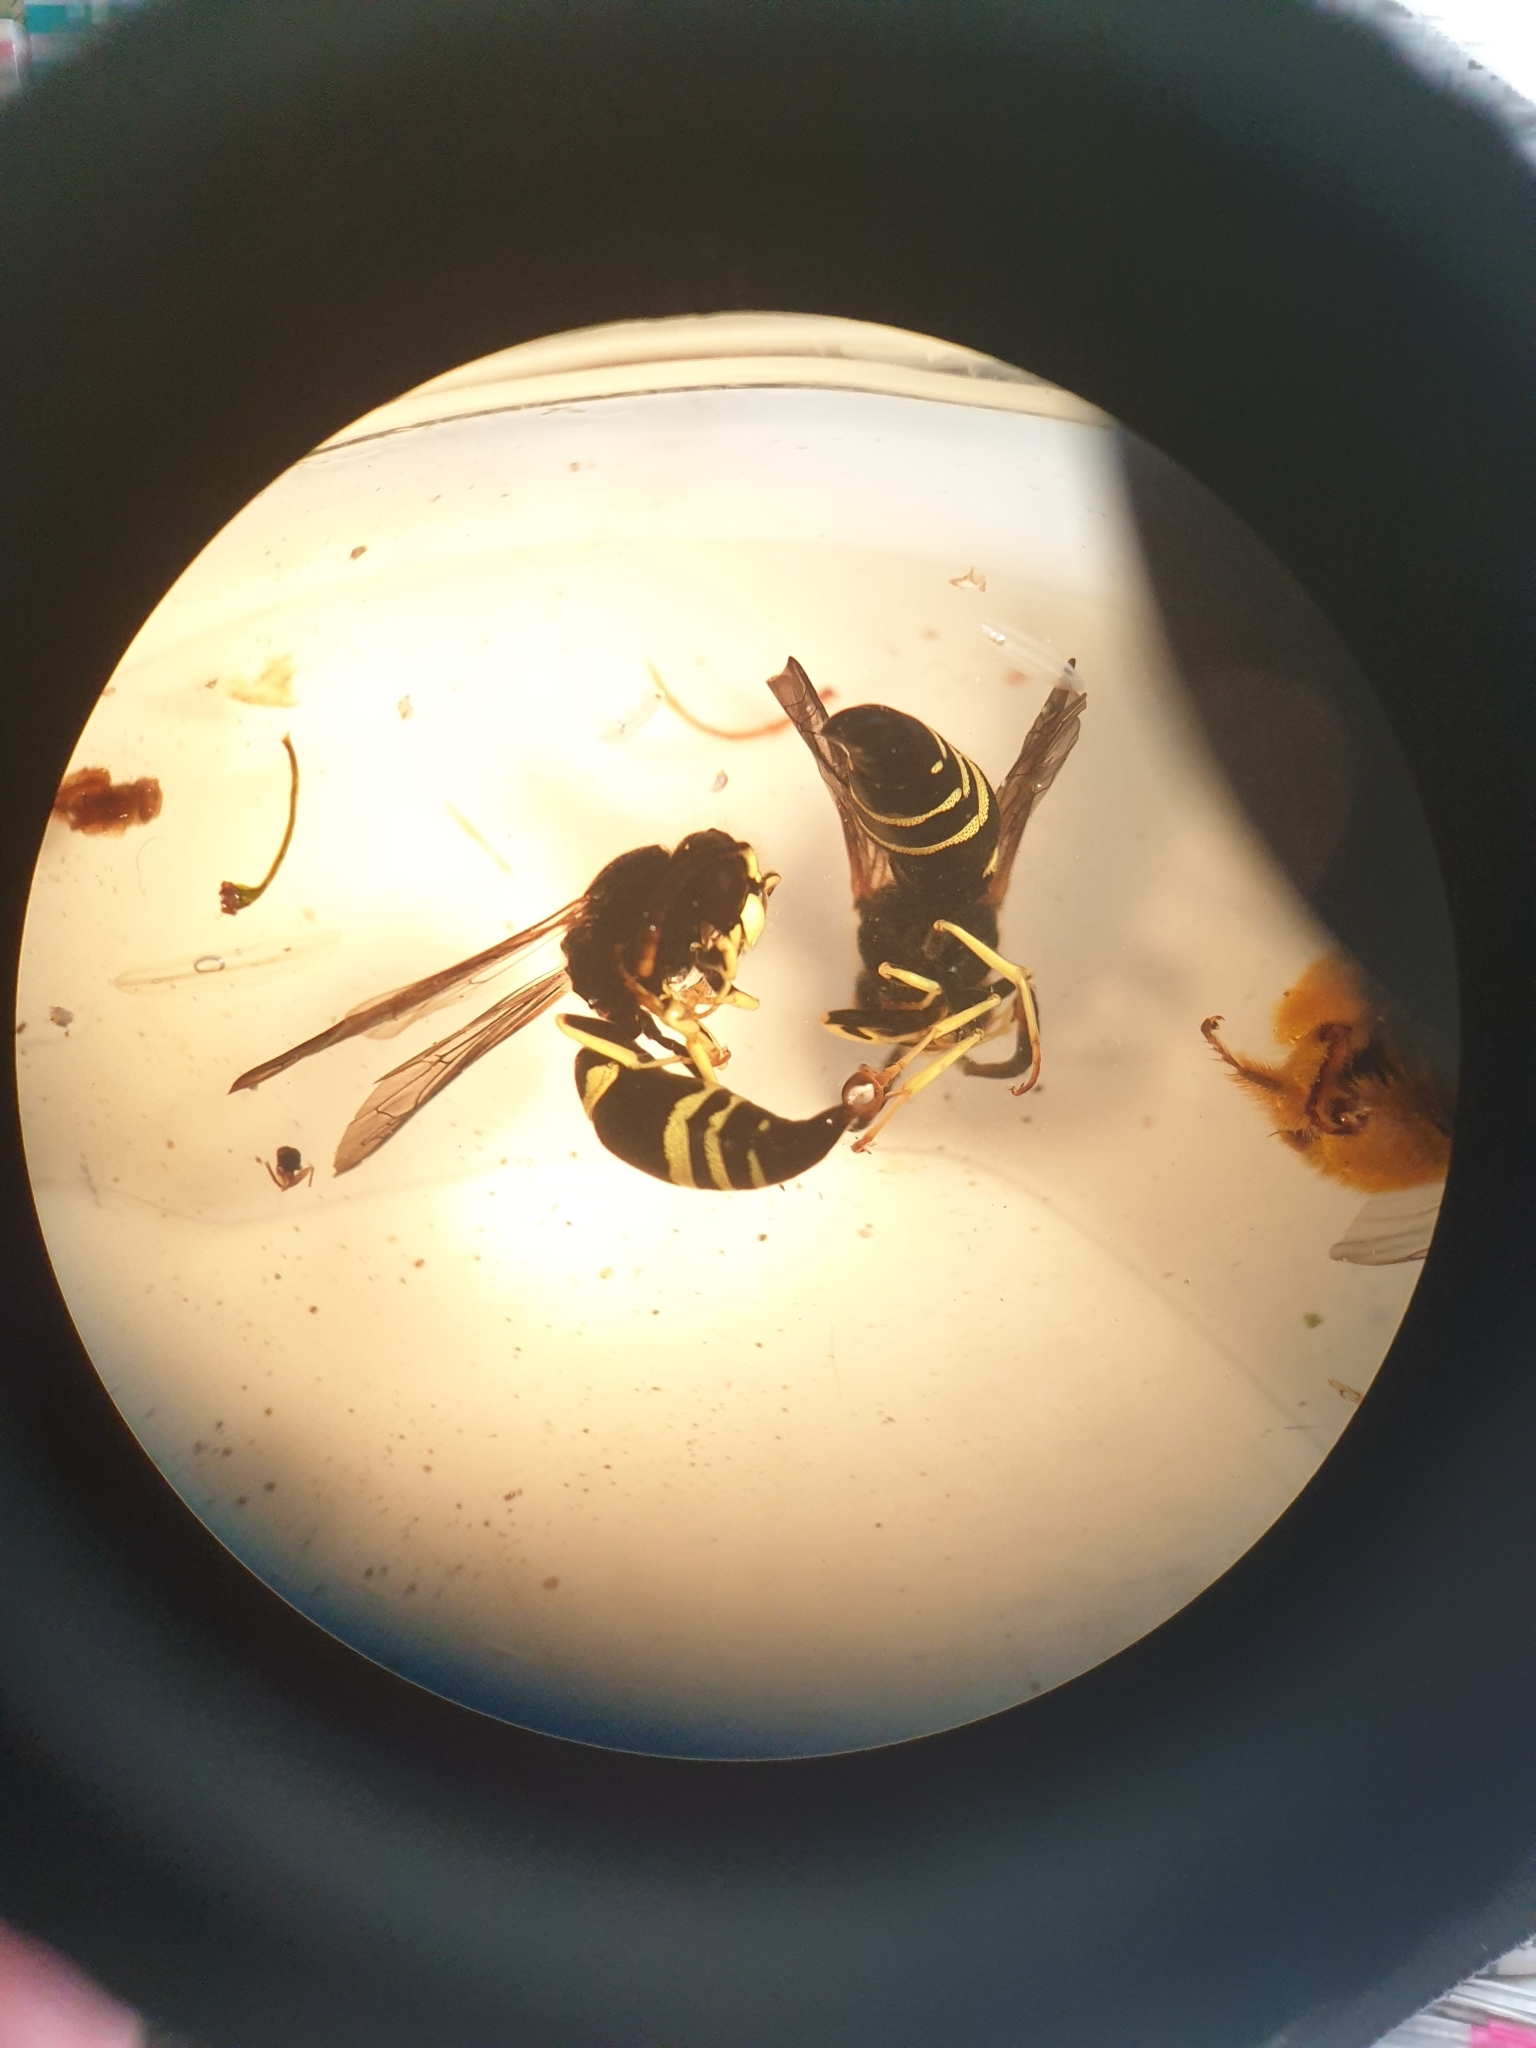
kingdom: Animalia
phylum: Arthropoda
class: Insecta
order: Hymenoptera
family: Vespidae
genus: Ancistrocerus
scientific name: Ancistrocerus gazella
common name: European tube wasp
